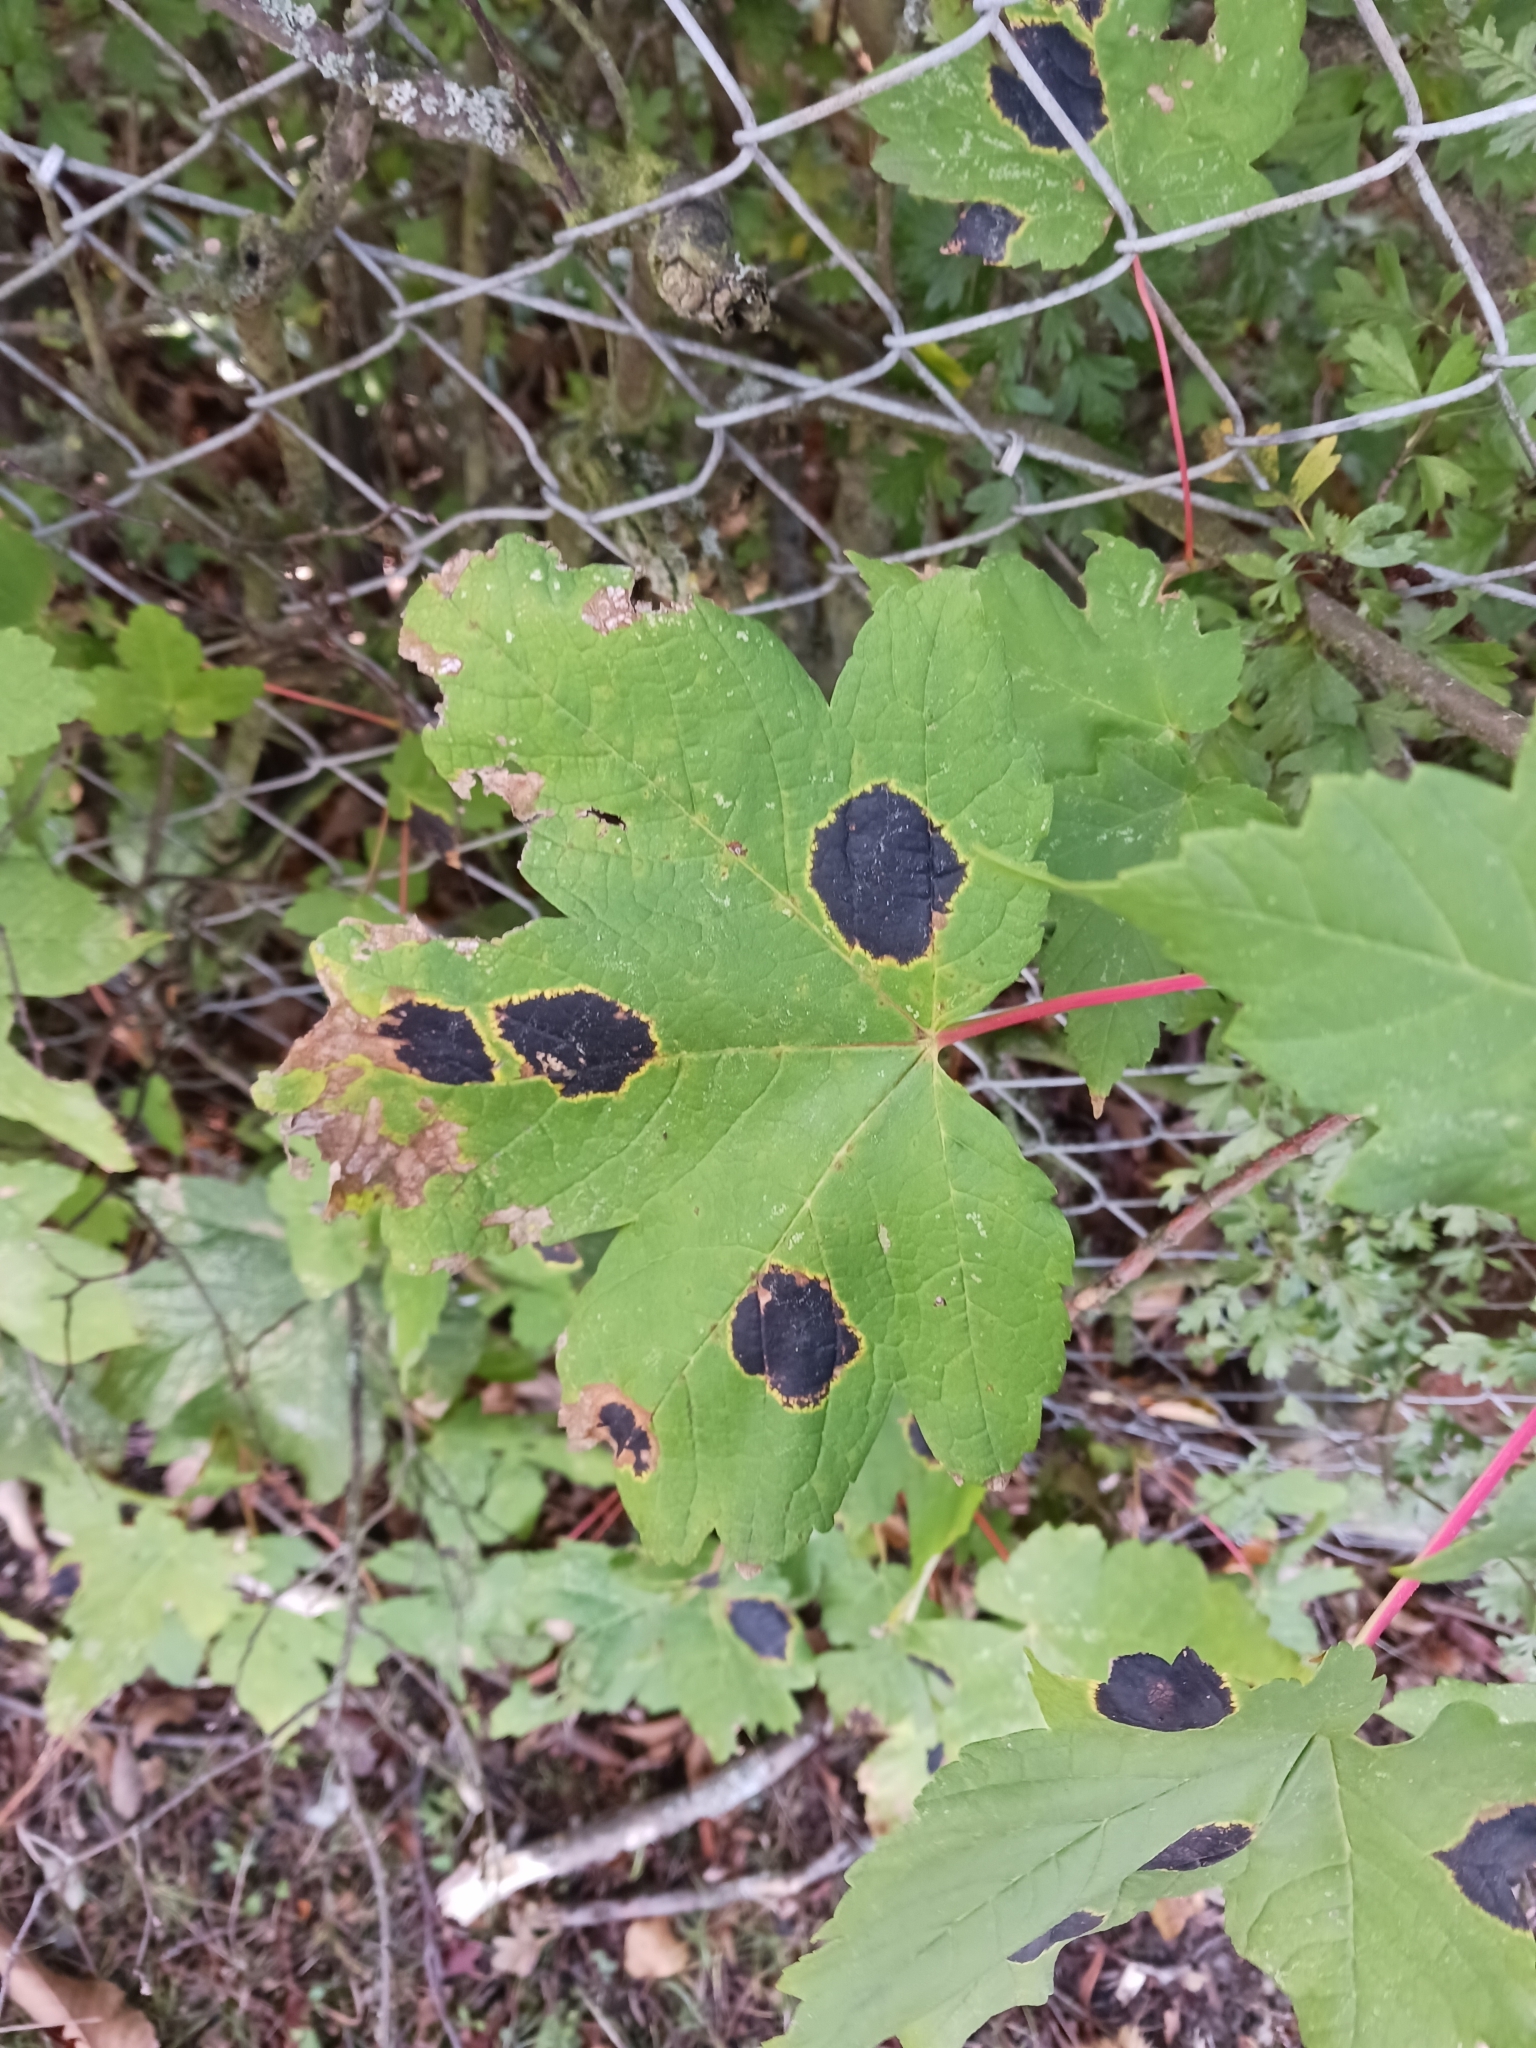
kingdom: Fungi
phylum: Ascomycota
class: Leotiomycetes
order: Rhytismatales
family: Rhytismataceae
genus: Rhytisma
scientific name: Rhytisma acerinum
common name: European tar spot
